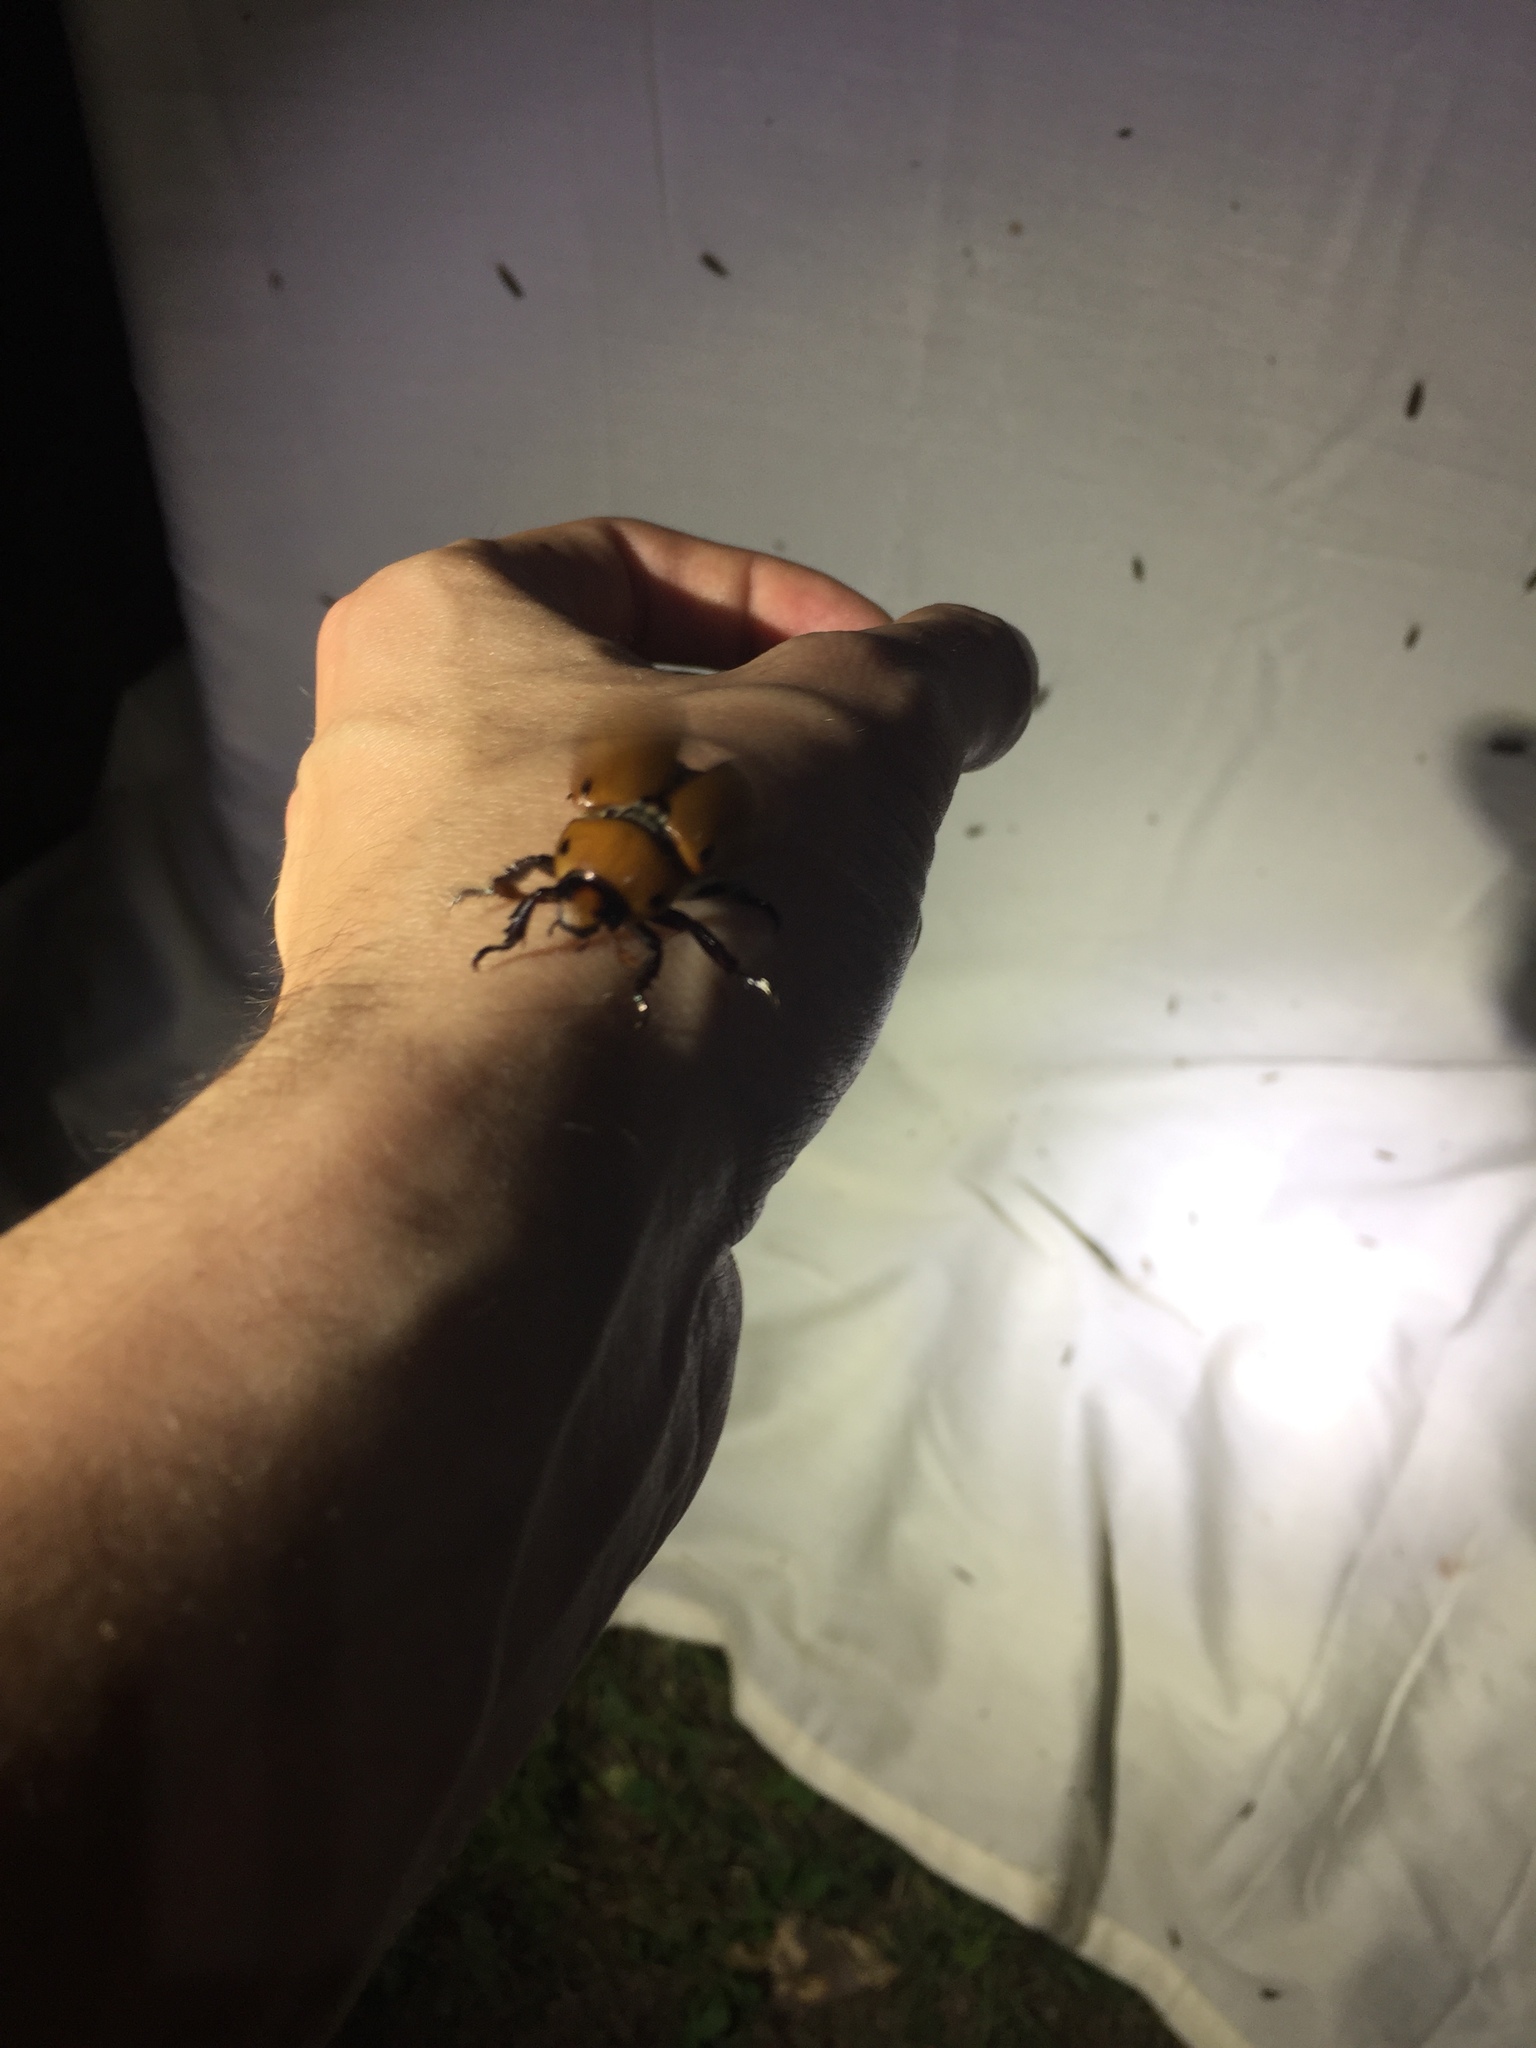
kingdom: Animalia
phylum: Arthropoda
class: Insecta
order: Coleoptera
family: Scarabaeidae
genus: Pelidnota
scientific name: Pelidnota punctata
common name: Grapevine beetle
